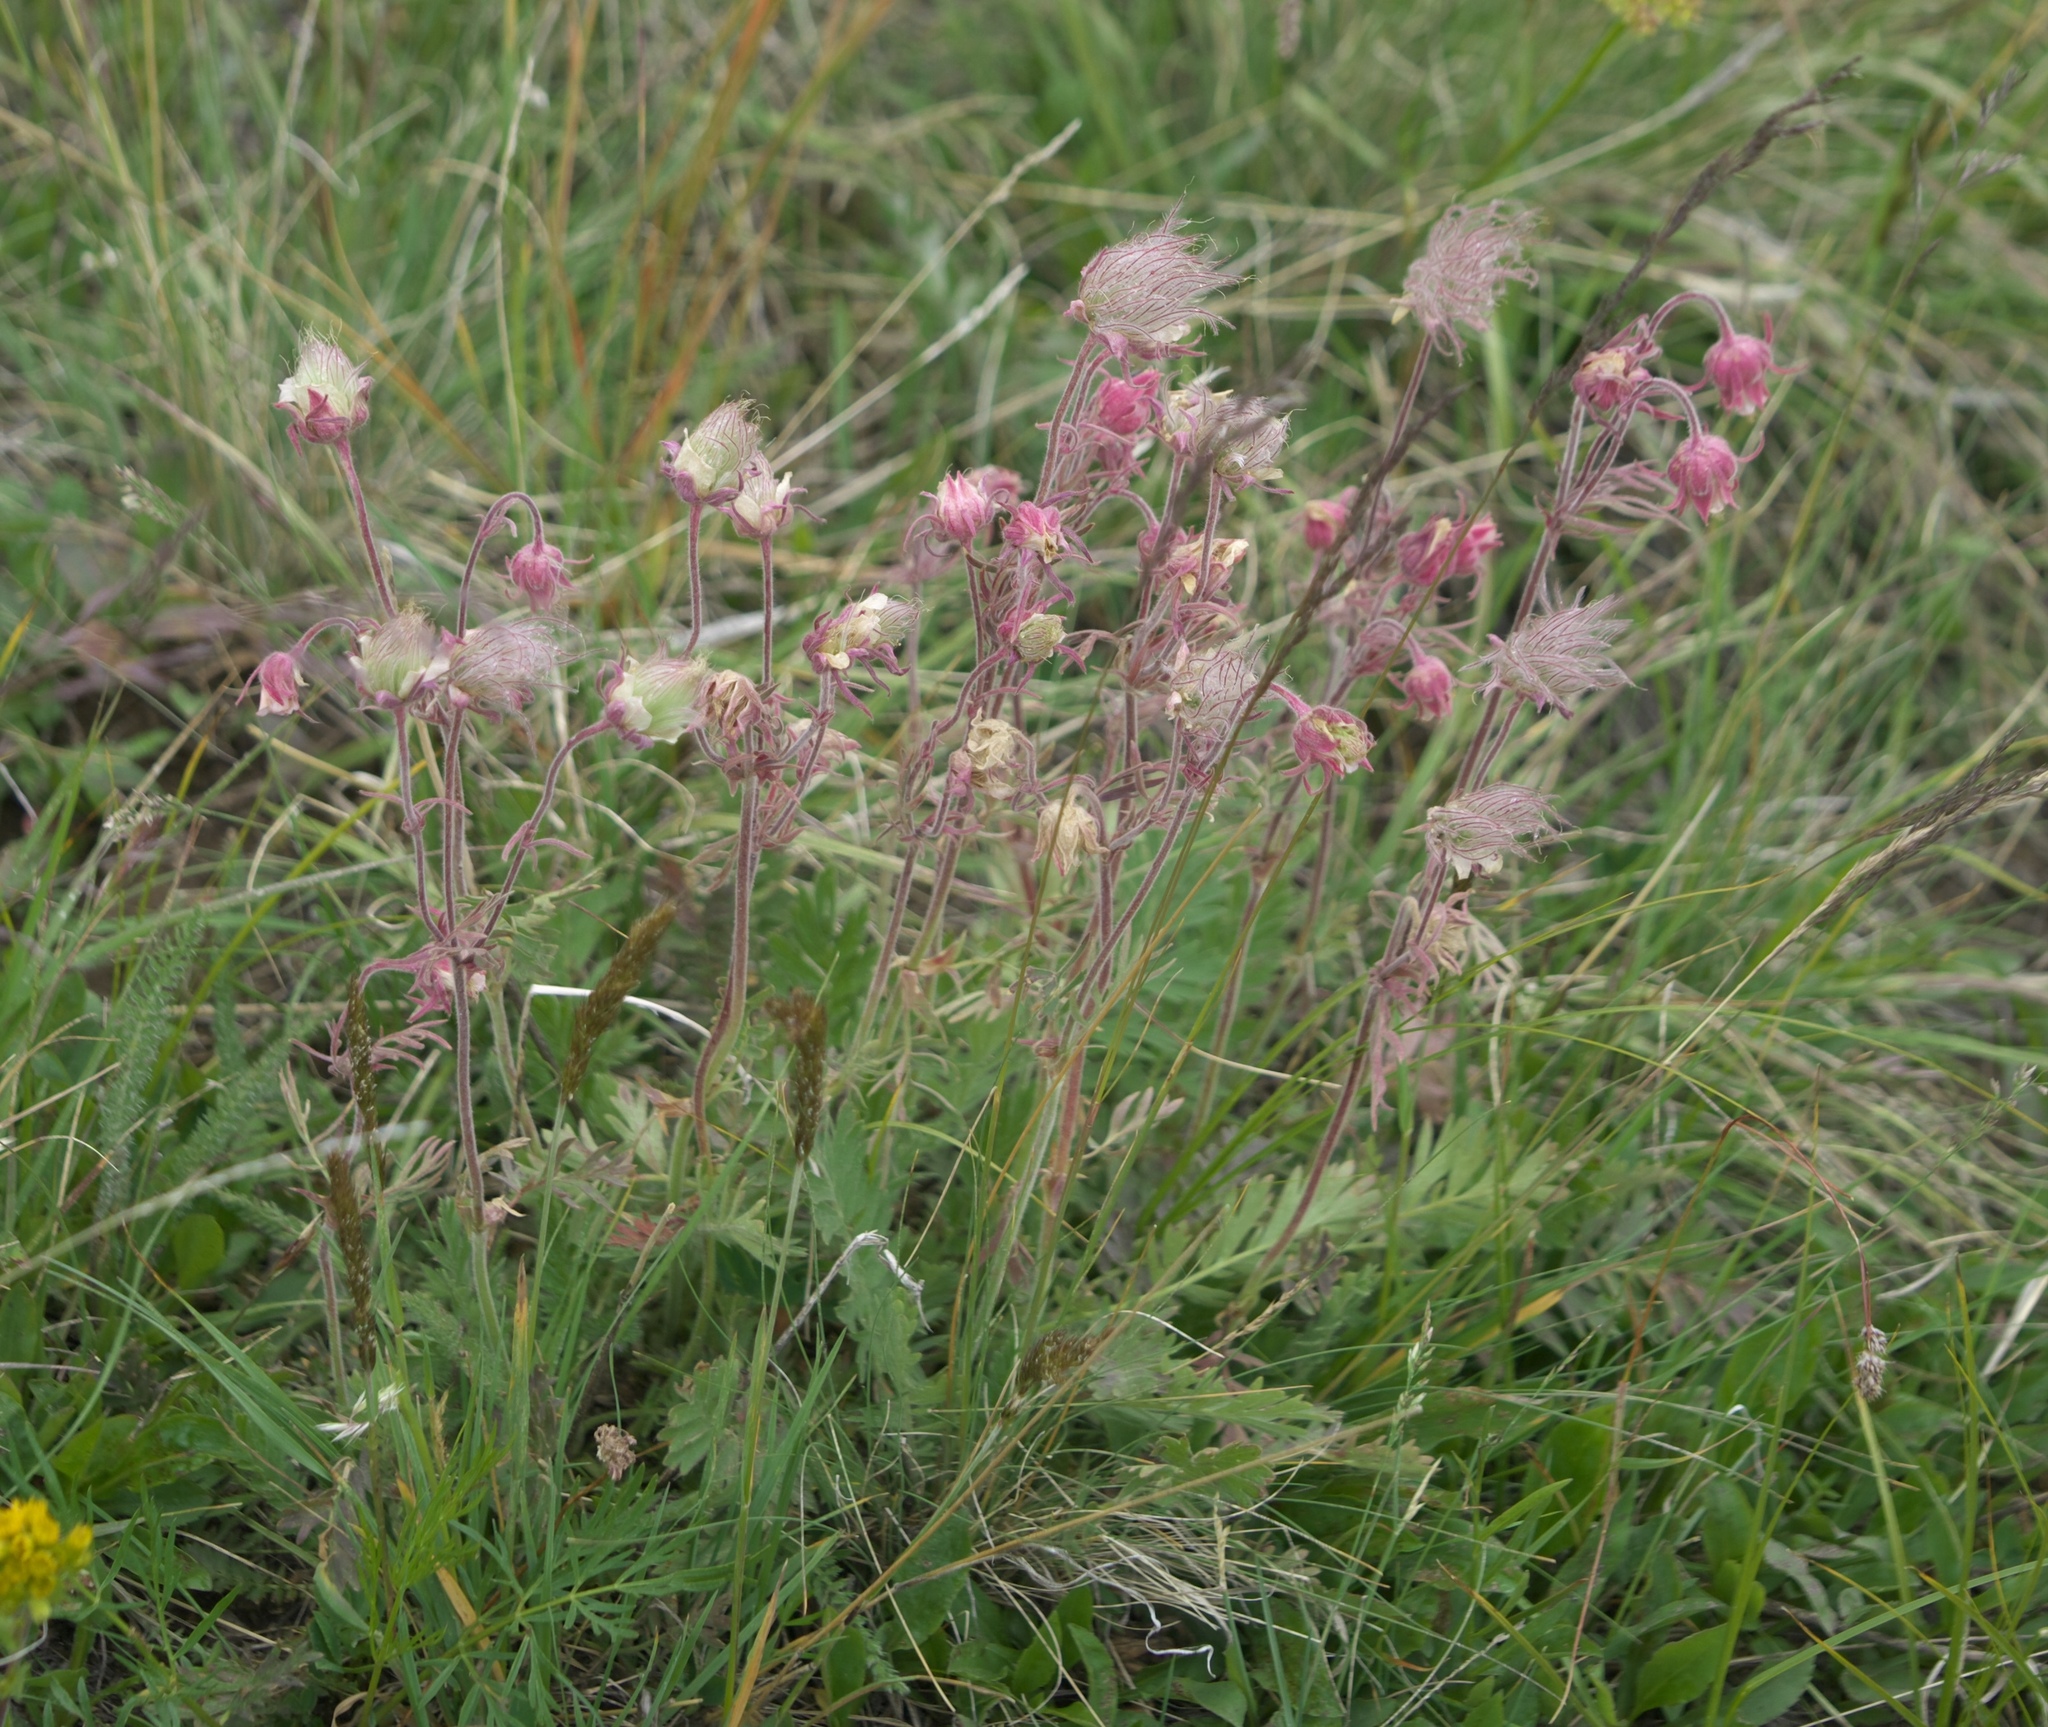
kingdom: Plantae
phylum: Tracheophyta
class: Magnoliopsida
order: Rosales
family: Rosaceae
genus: Geum
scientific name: Geum triflorum
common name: Old man's whiskers
